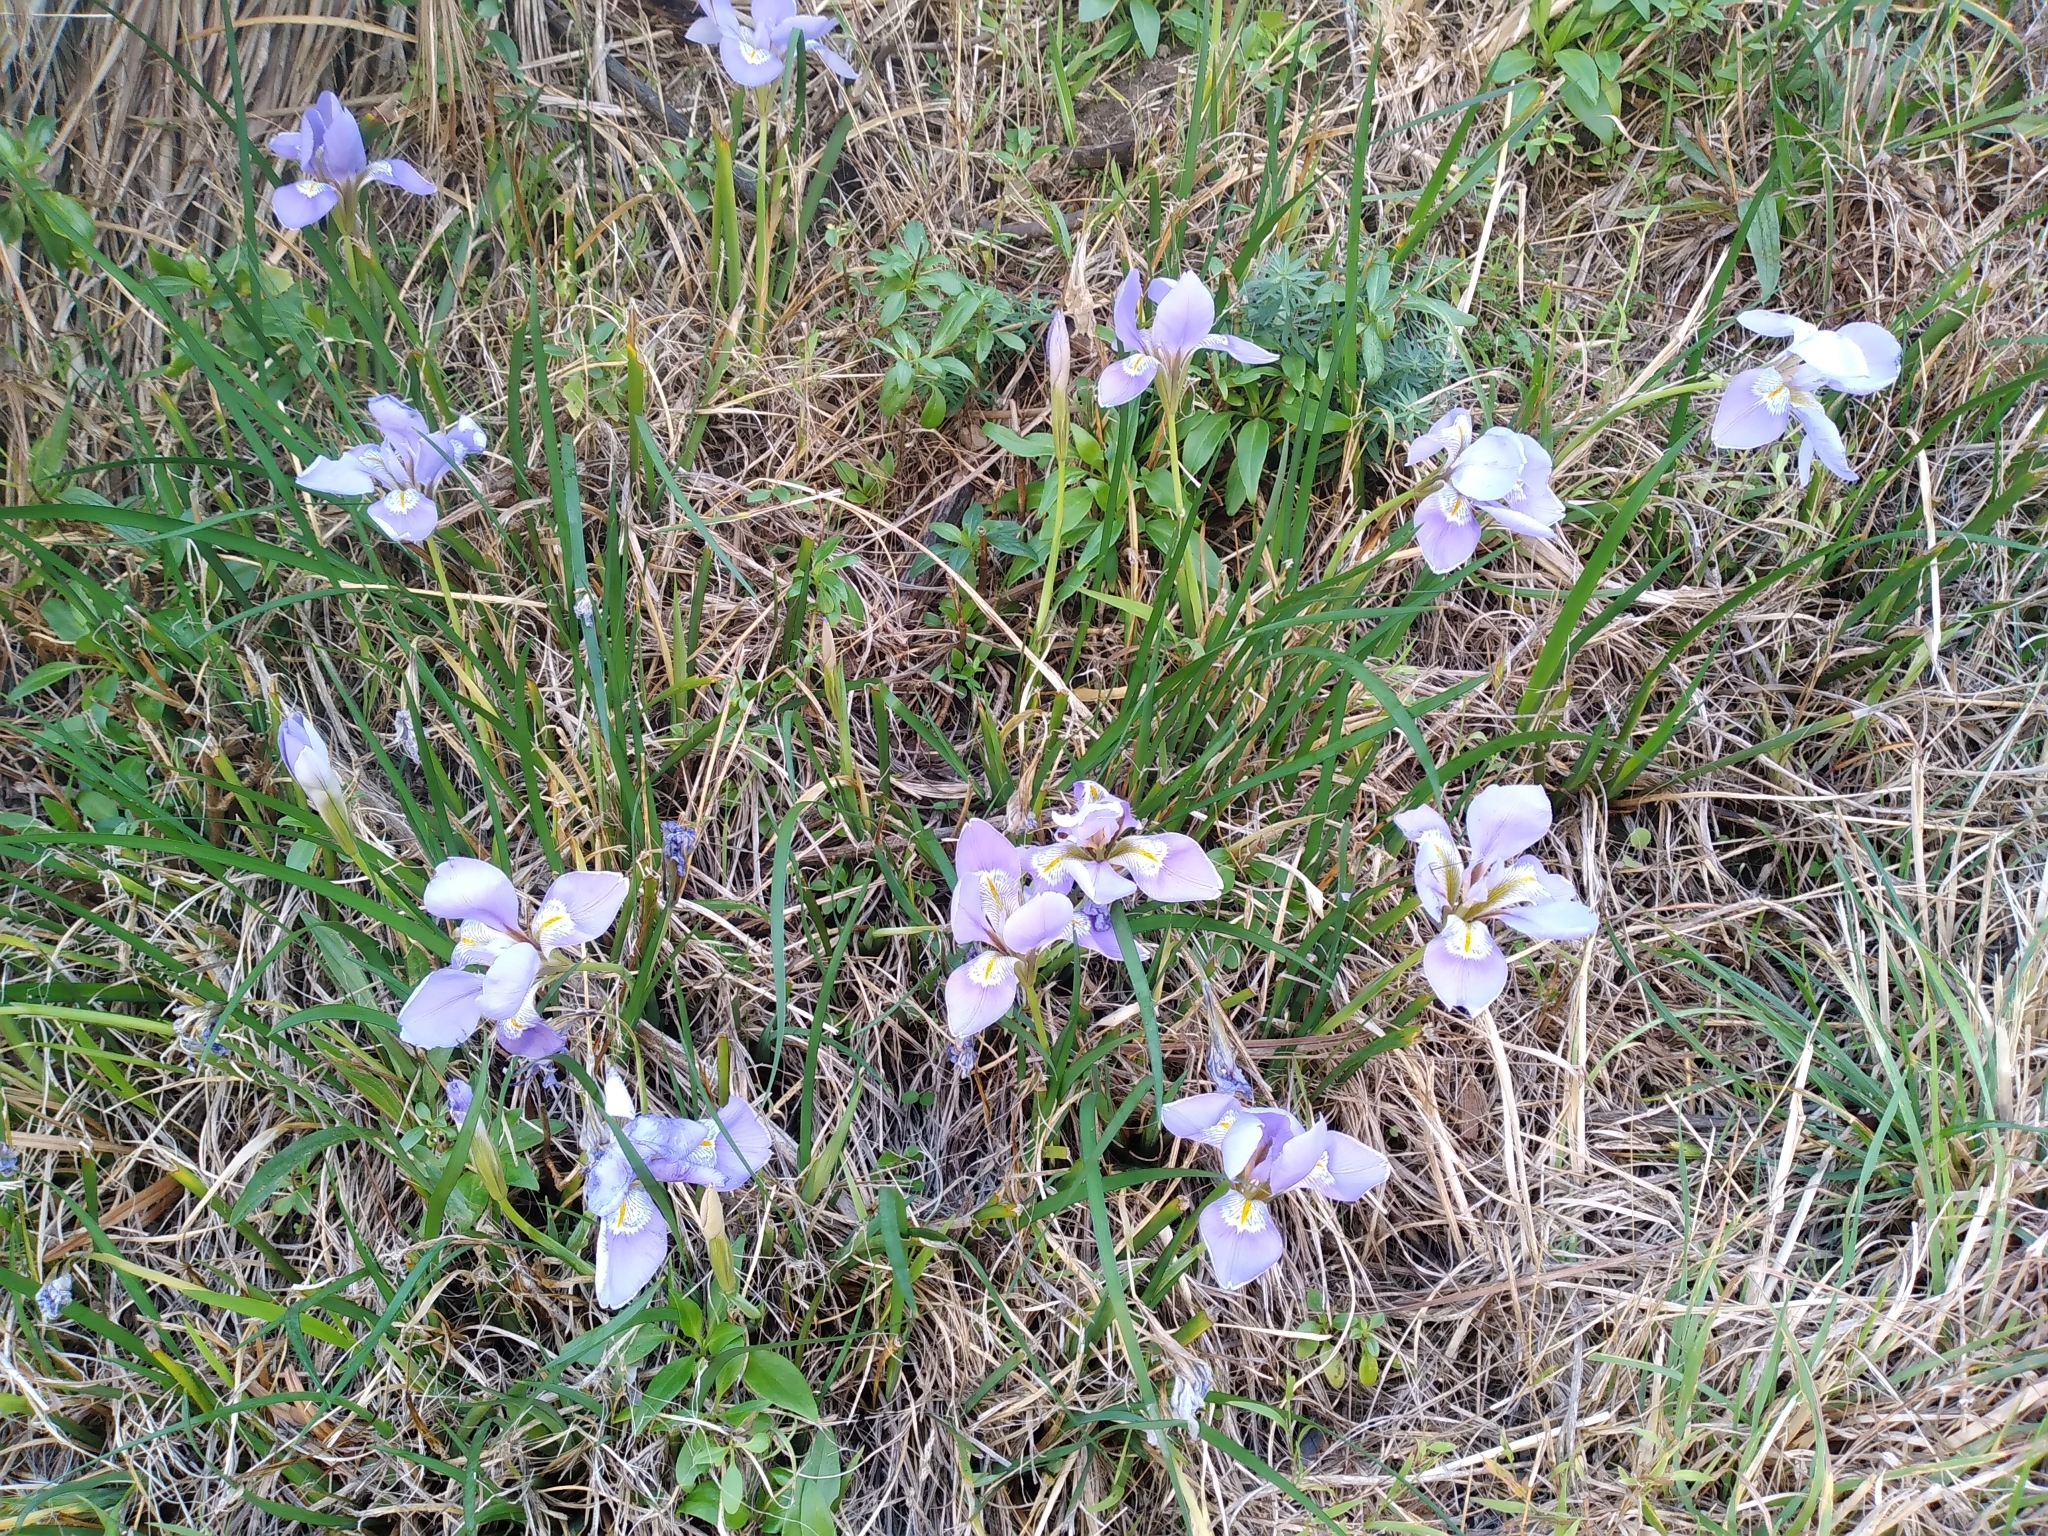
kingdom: Plantae
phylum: Tracheophyta
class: Liliopsida
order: Asparagales
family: Iridaceae
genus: Iris
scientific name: Iris unguicularis
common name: Algerian iris
